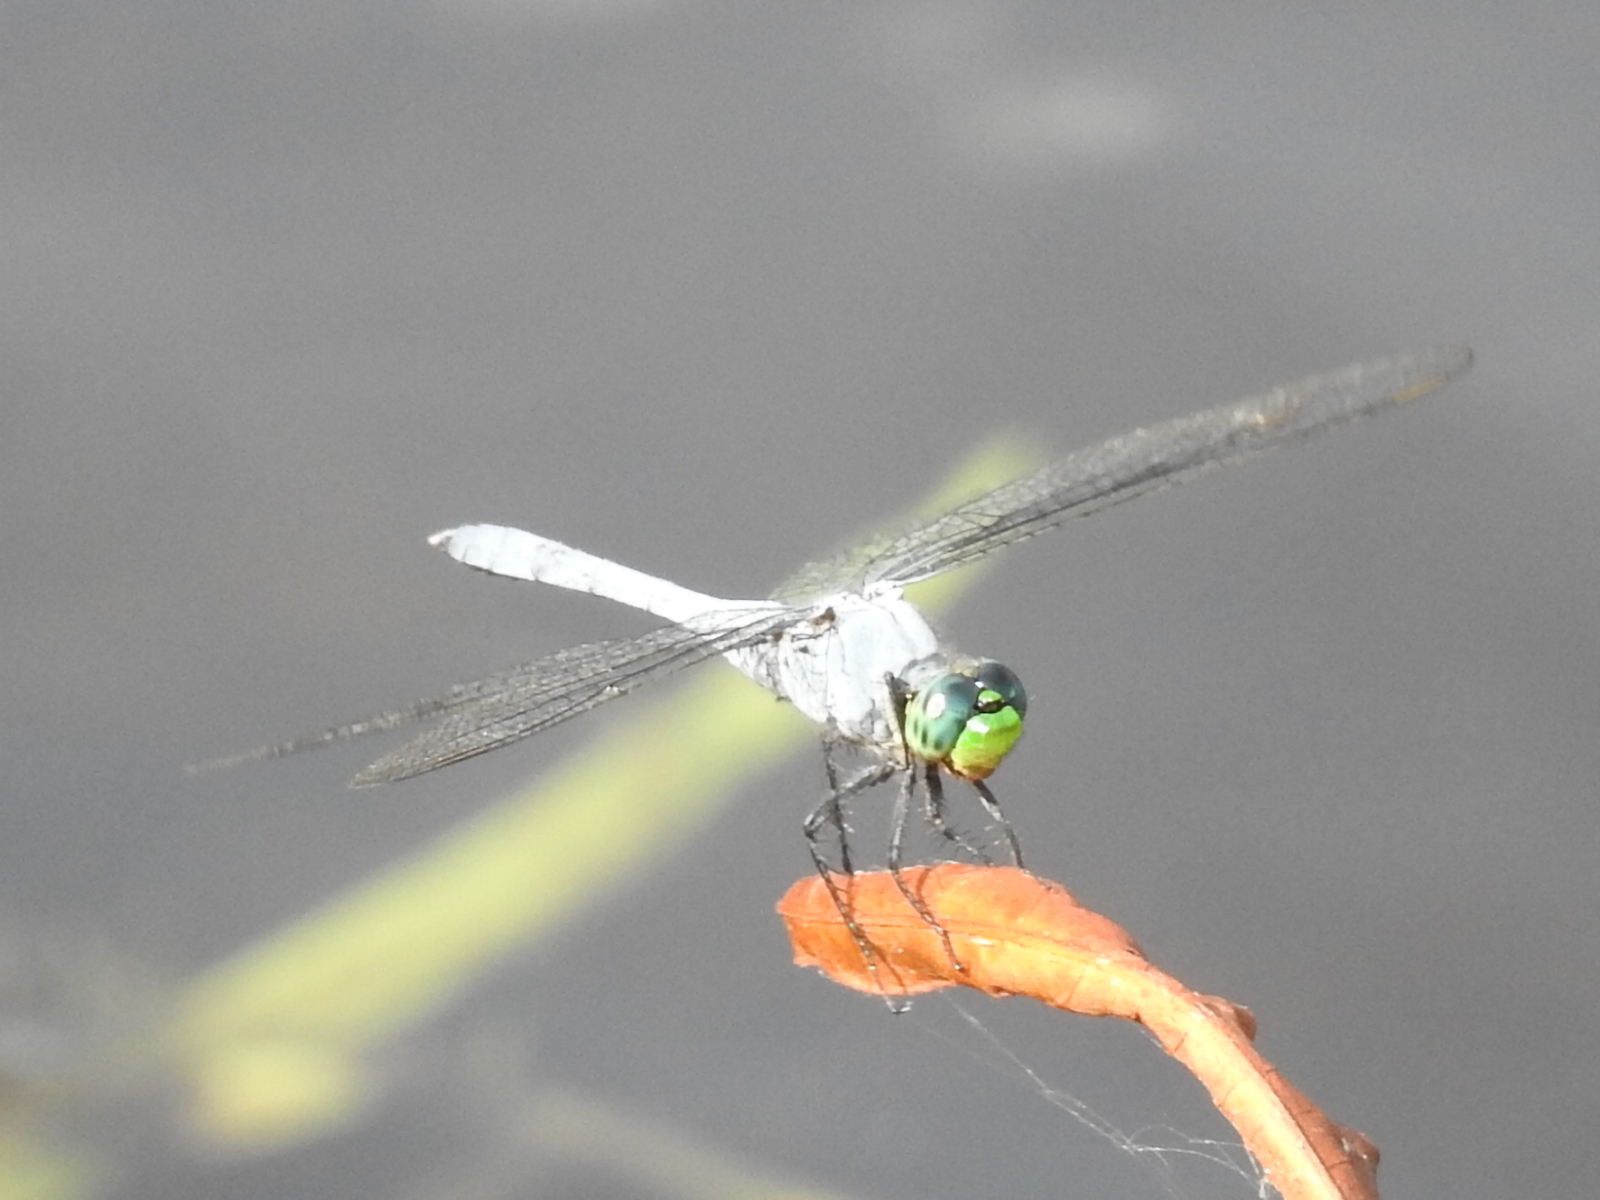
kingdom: Animalia
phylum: Arthropoda
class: Insecta
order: Odonata
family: Libellulidae
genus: Erythemis
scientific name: Erythemis simplicicollis
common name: Eastern pondhawk
